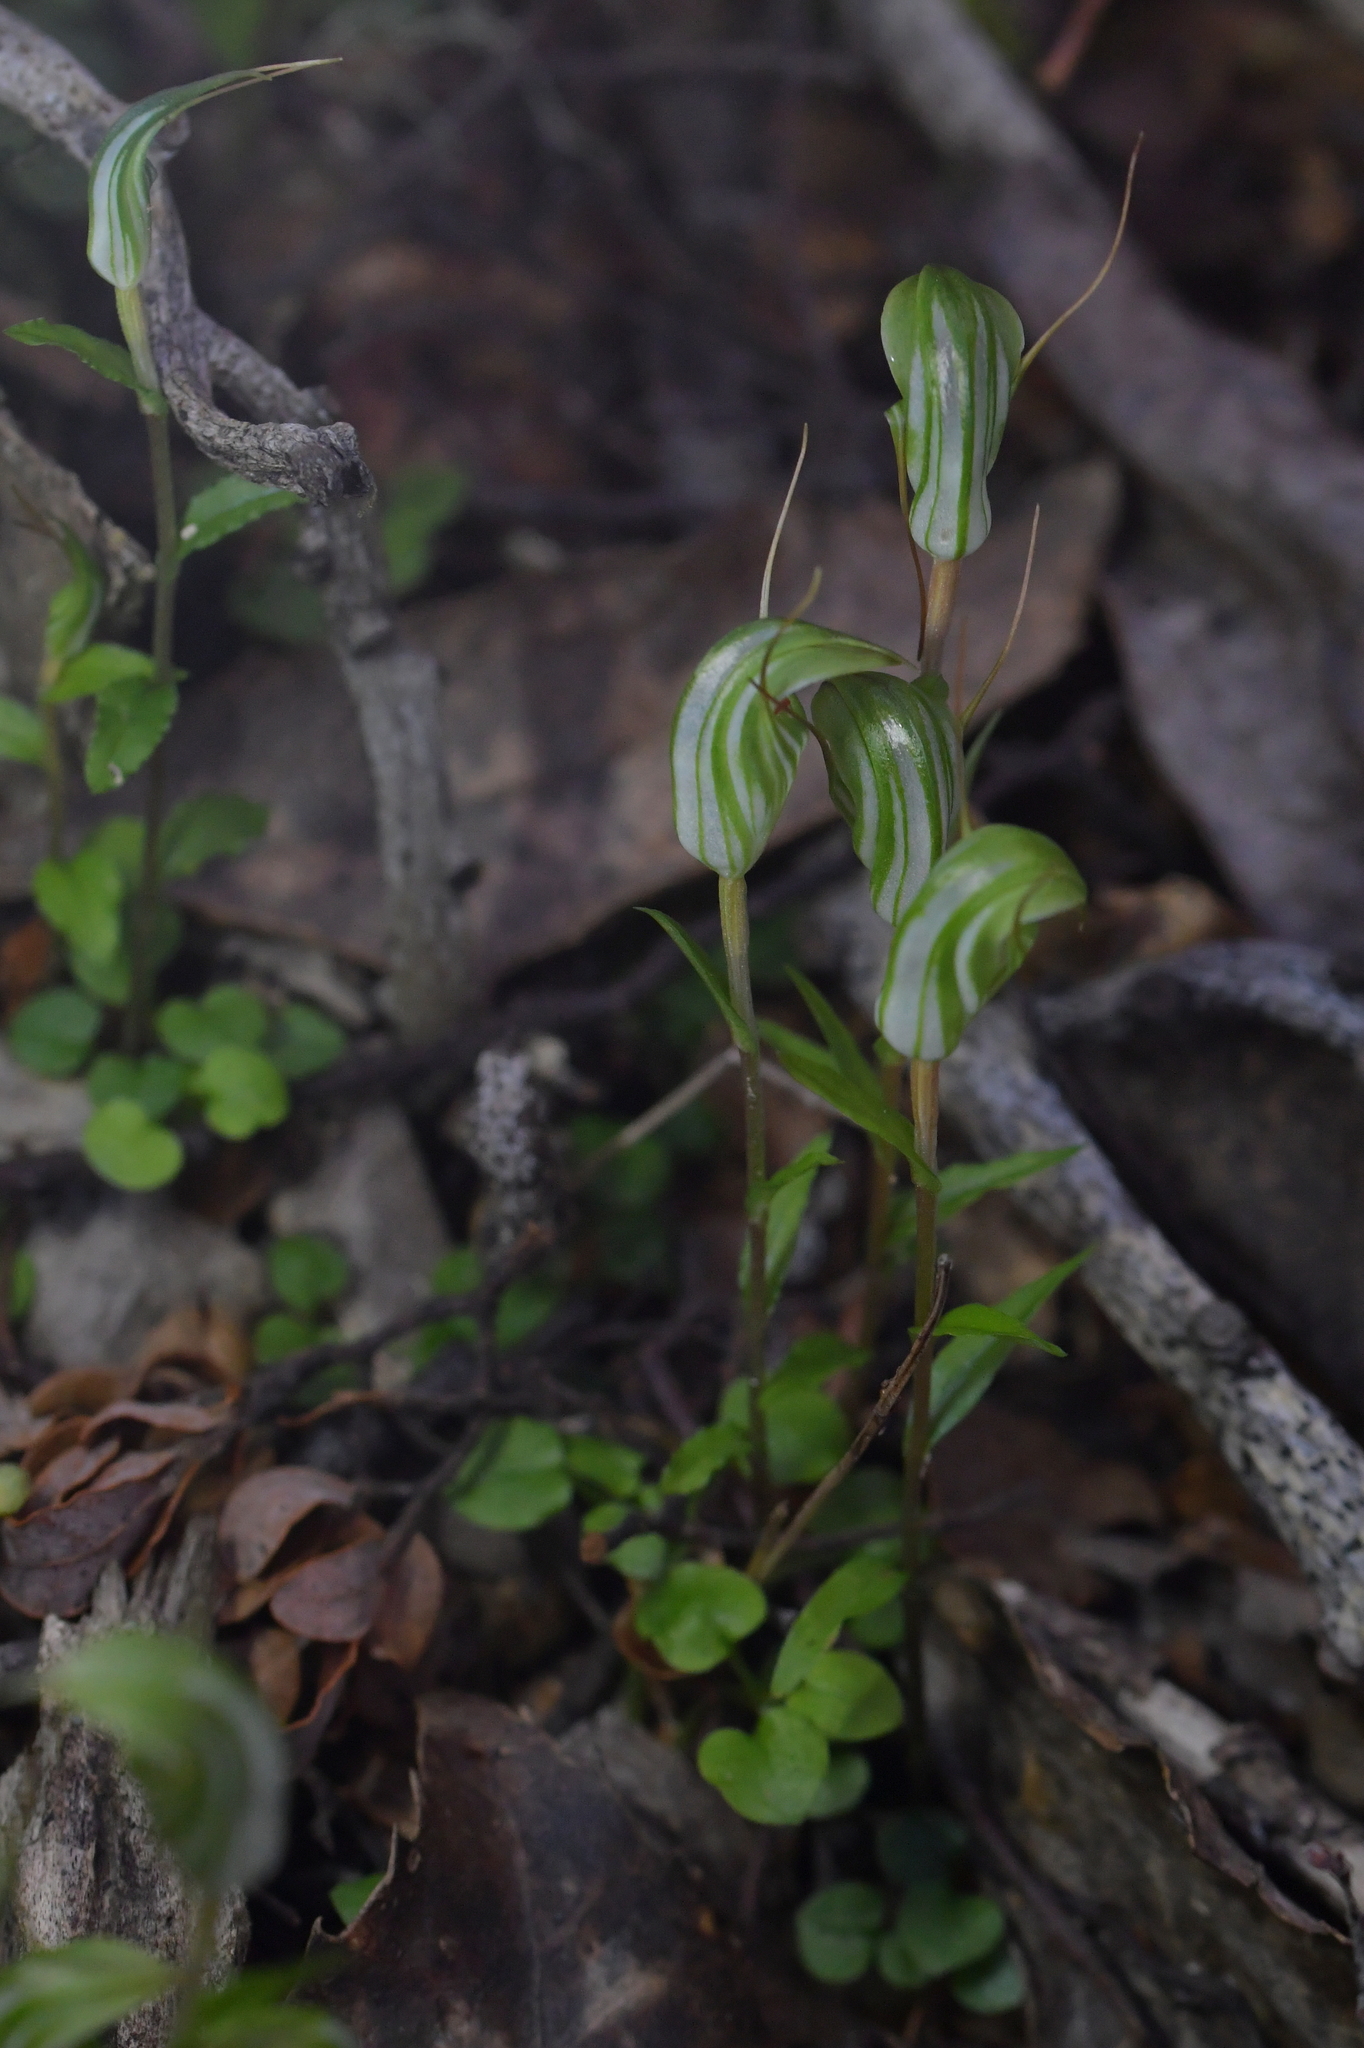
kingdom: Plantae
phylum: Tracheophyta
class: Liliopsida
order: Asparagales
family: Orchidaceae
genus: Pterostylis
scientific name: Pterostylis alobula
